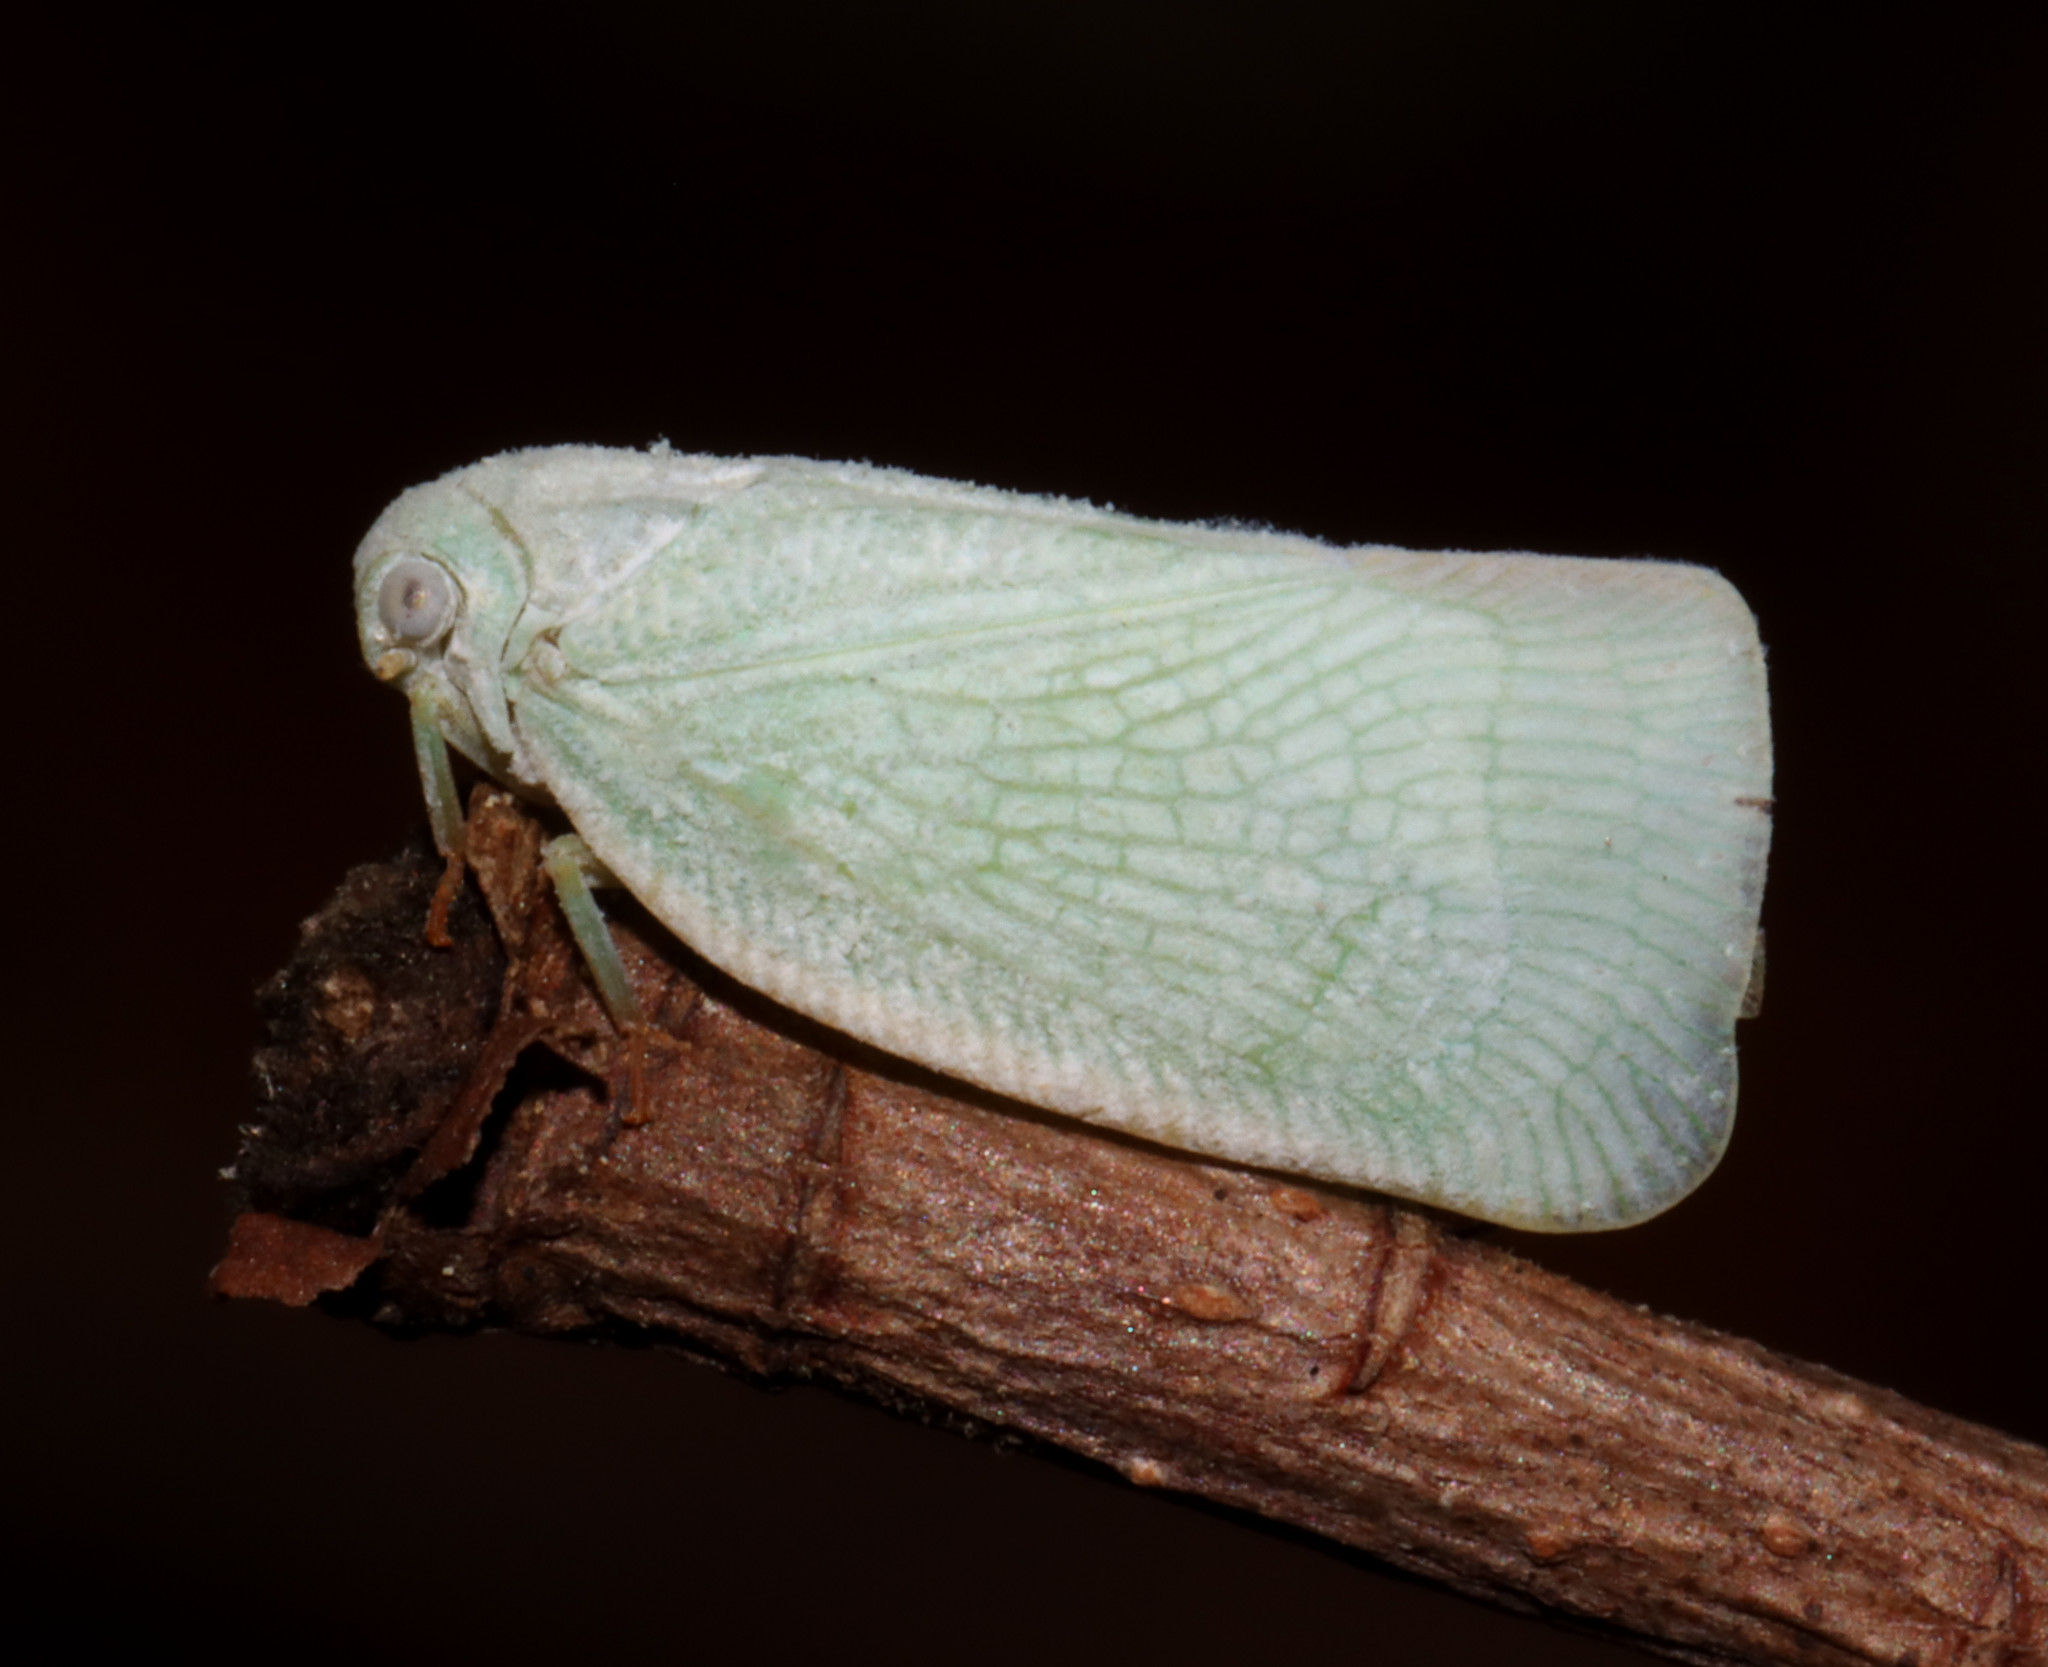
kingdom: Animalia
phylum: Arthropoda
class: Insecta
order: Hemiptera
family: Flatidae
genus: Flatormenis
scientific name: Flatormenis proxima
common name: Northern flatid planthopper
